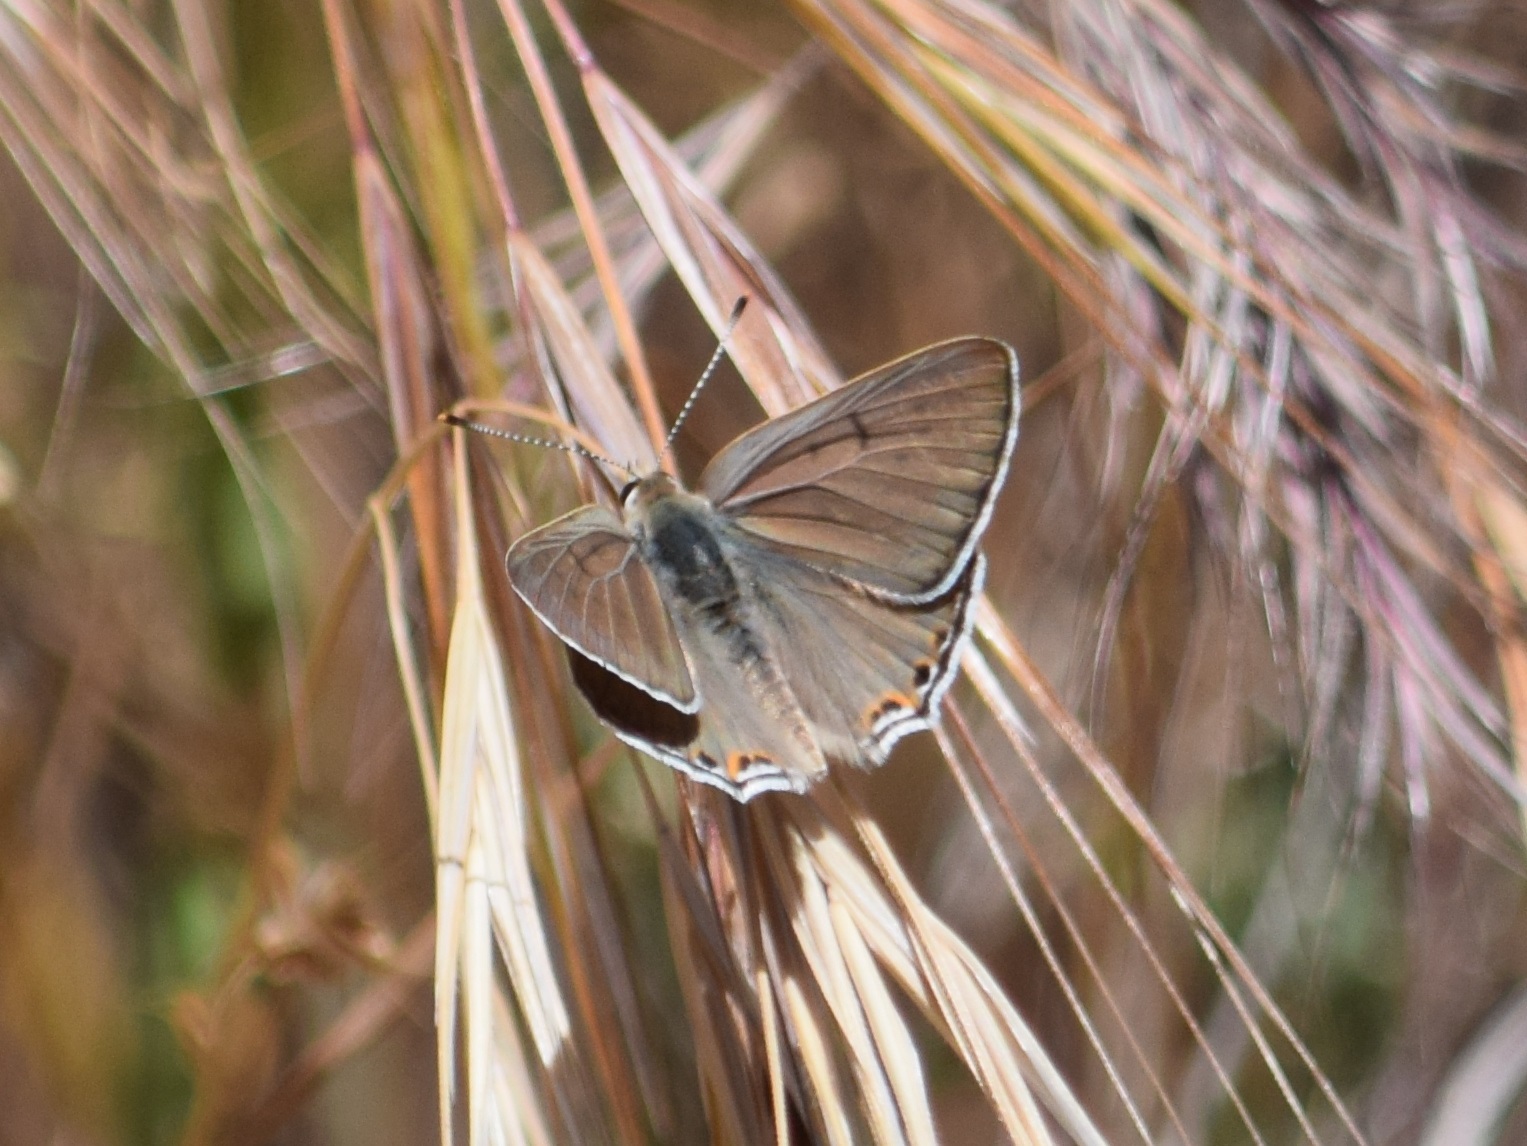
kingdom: Animalia
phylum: Arthropoda
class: Insecta
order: Lepidoptera
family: Lycaenidae
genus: Tharsalea
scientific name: Tharsalea xanthoides
